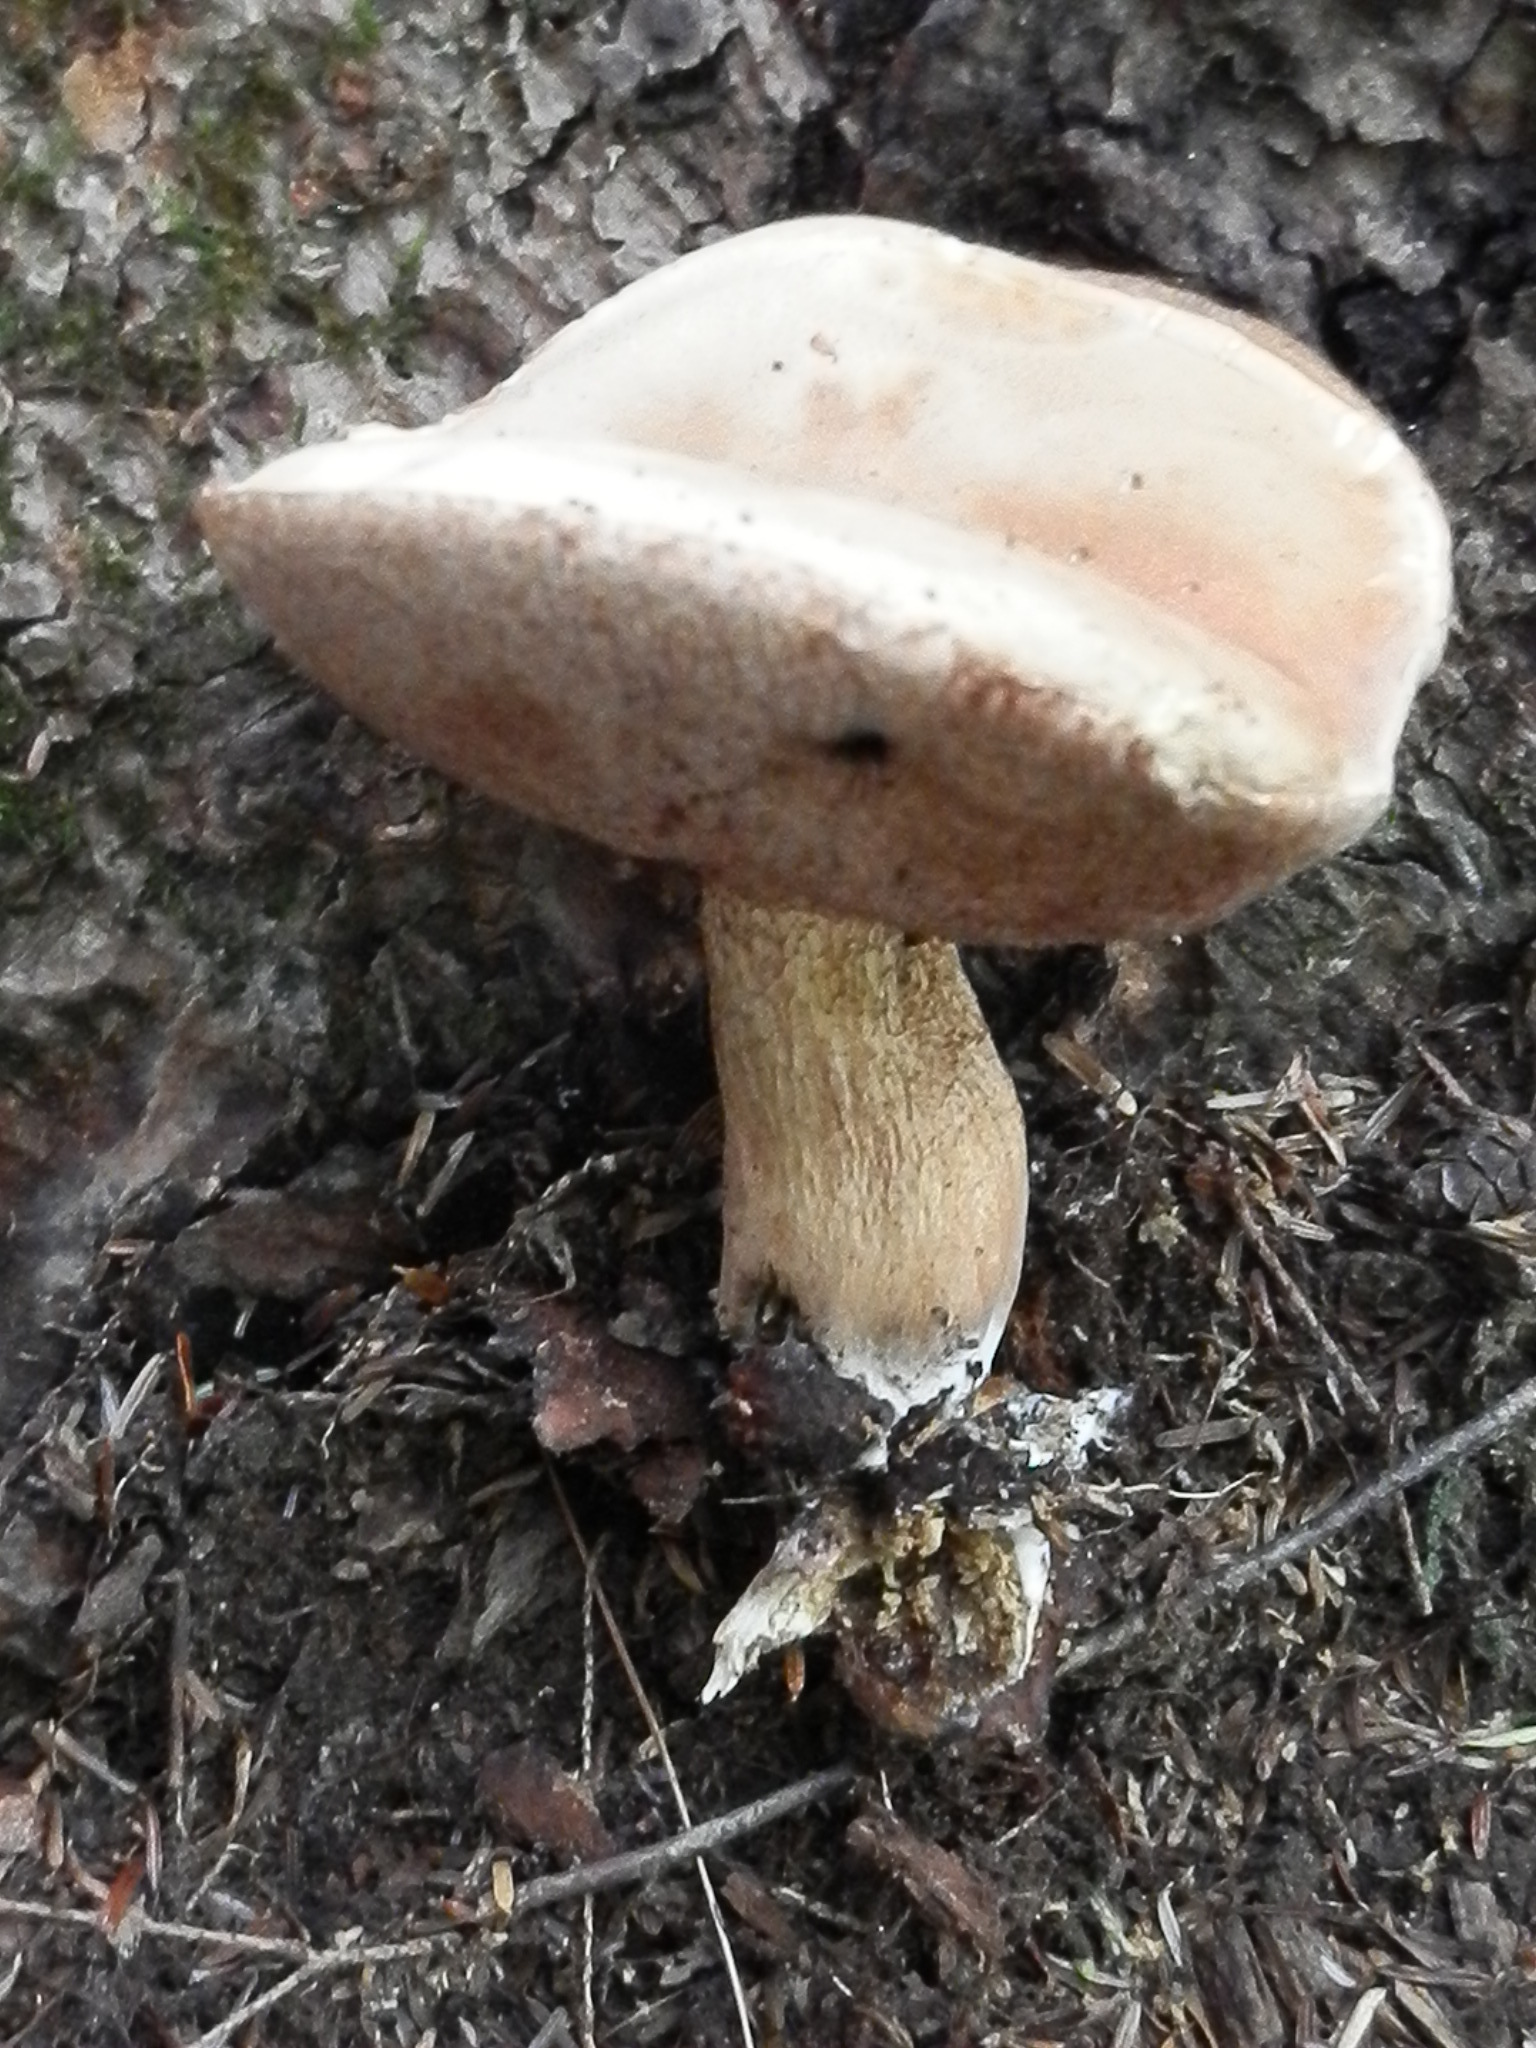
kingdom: Fungi
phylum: Basidiomycota
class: Agaricomycetes
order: Boletales
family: Boletaceae
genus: Tylopilus
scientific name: Tylopilus felleus
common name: Bitter bolete
